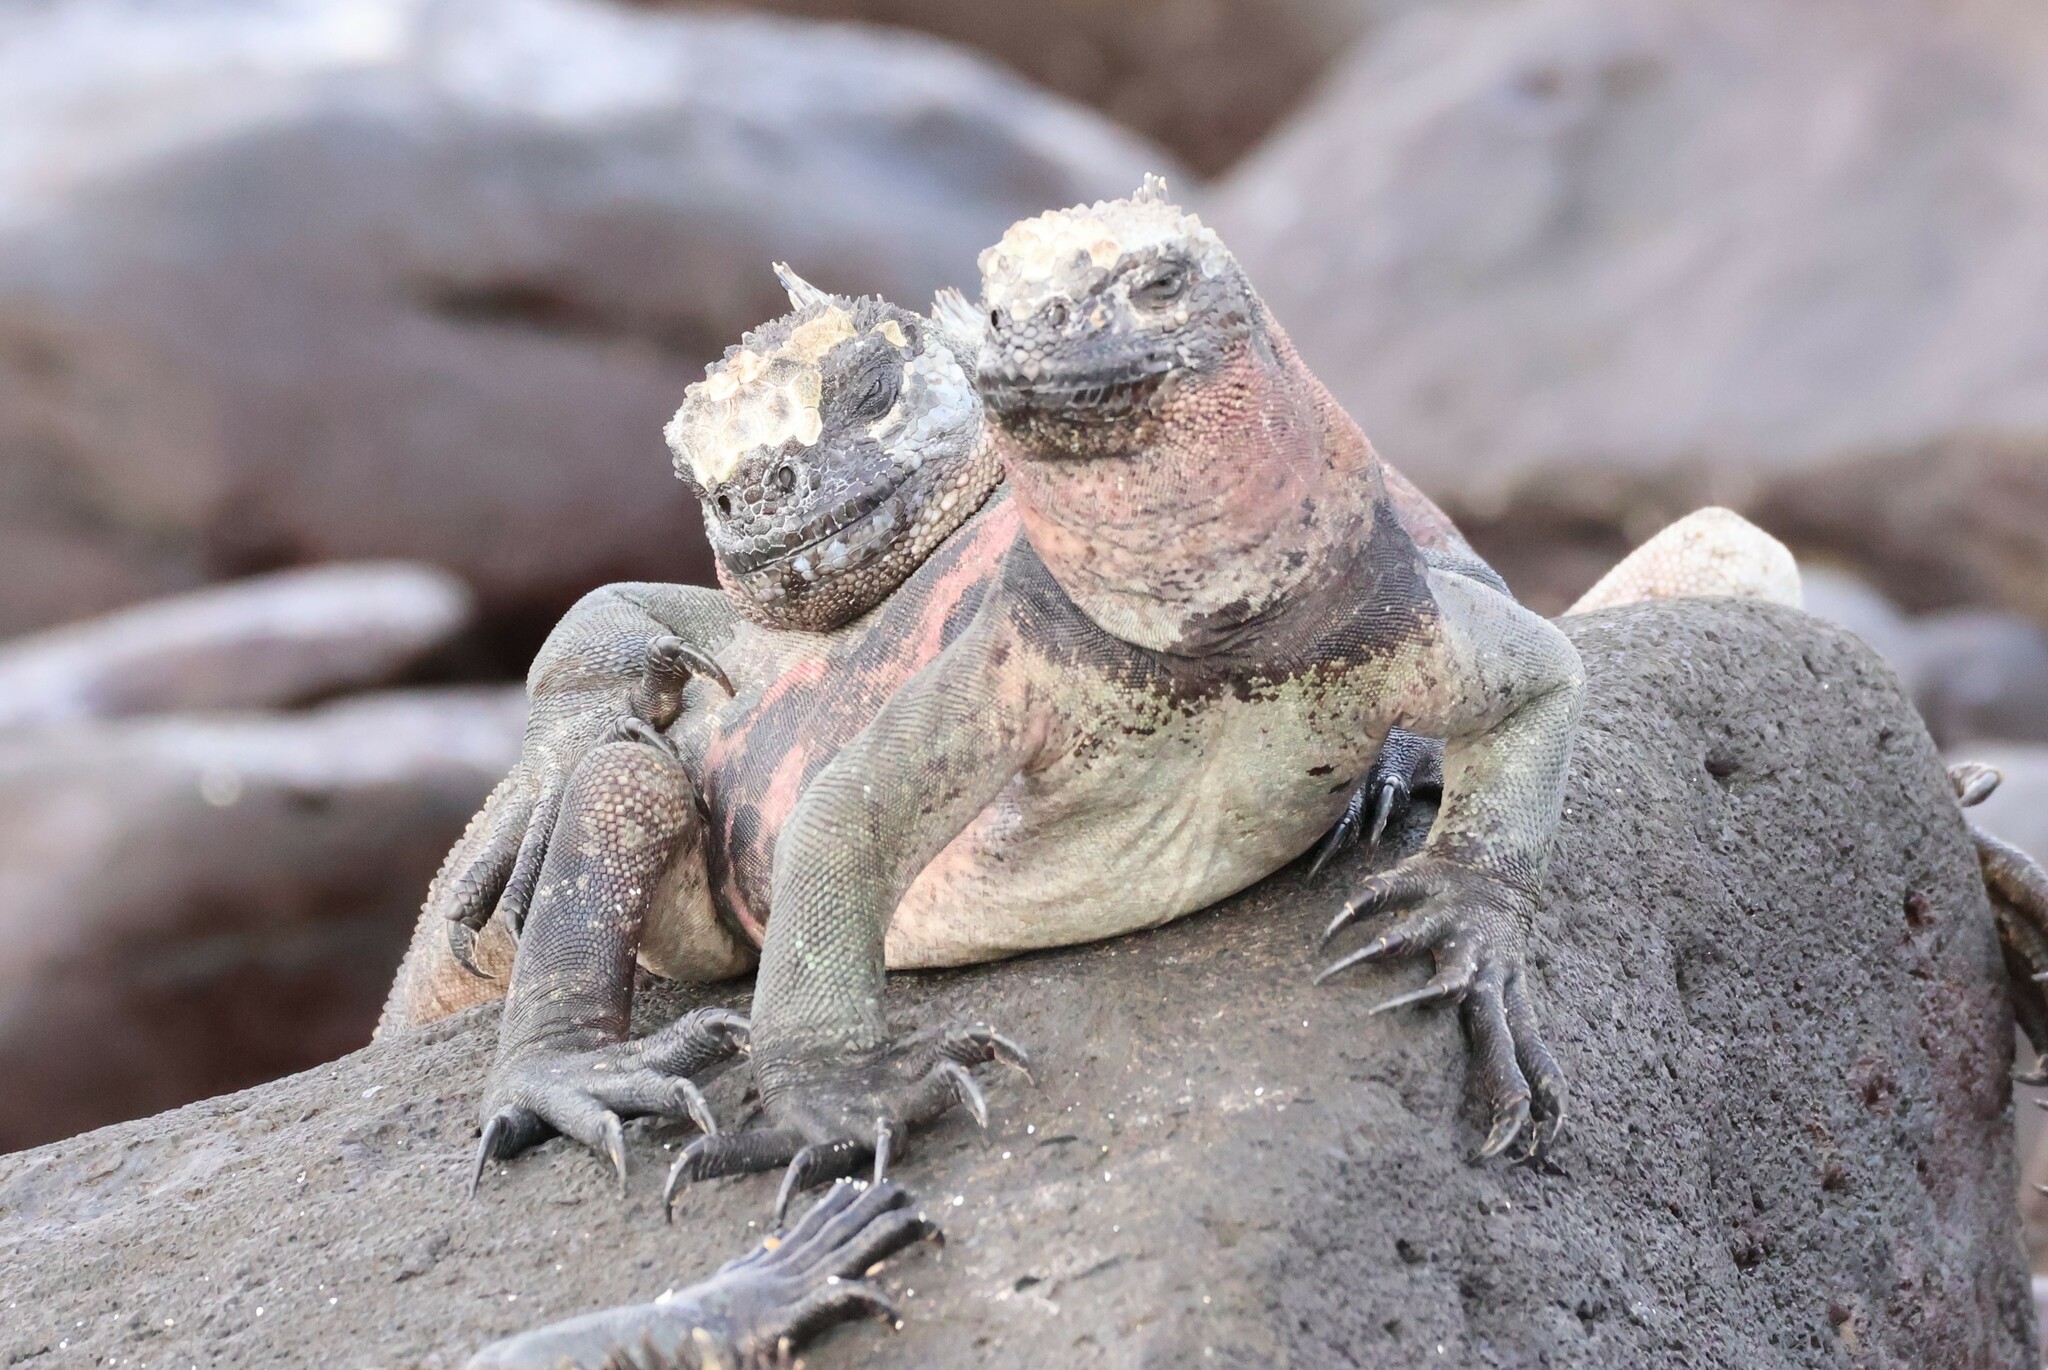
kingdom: Animalia
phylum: Chordata
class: Squamata
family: Iguanidae
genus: Amblyrhynchus
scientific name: Amblyrhynchus cristatus
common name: Marine iguana
